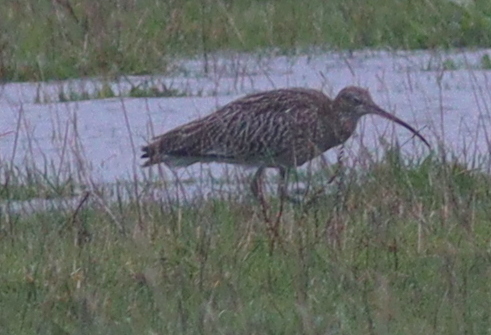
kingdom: Animalia
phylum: Chordata
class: Aves
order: Charadriiformes
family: Scolopacidae
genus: Numenius
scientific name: Numenius arquata
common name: Eurasian curlew
